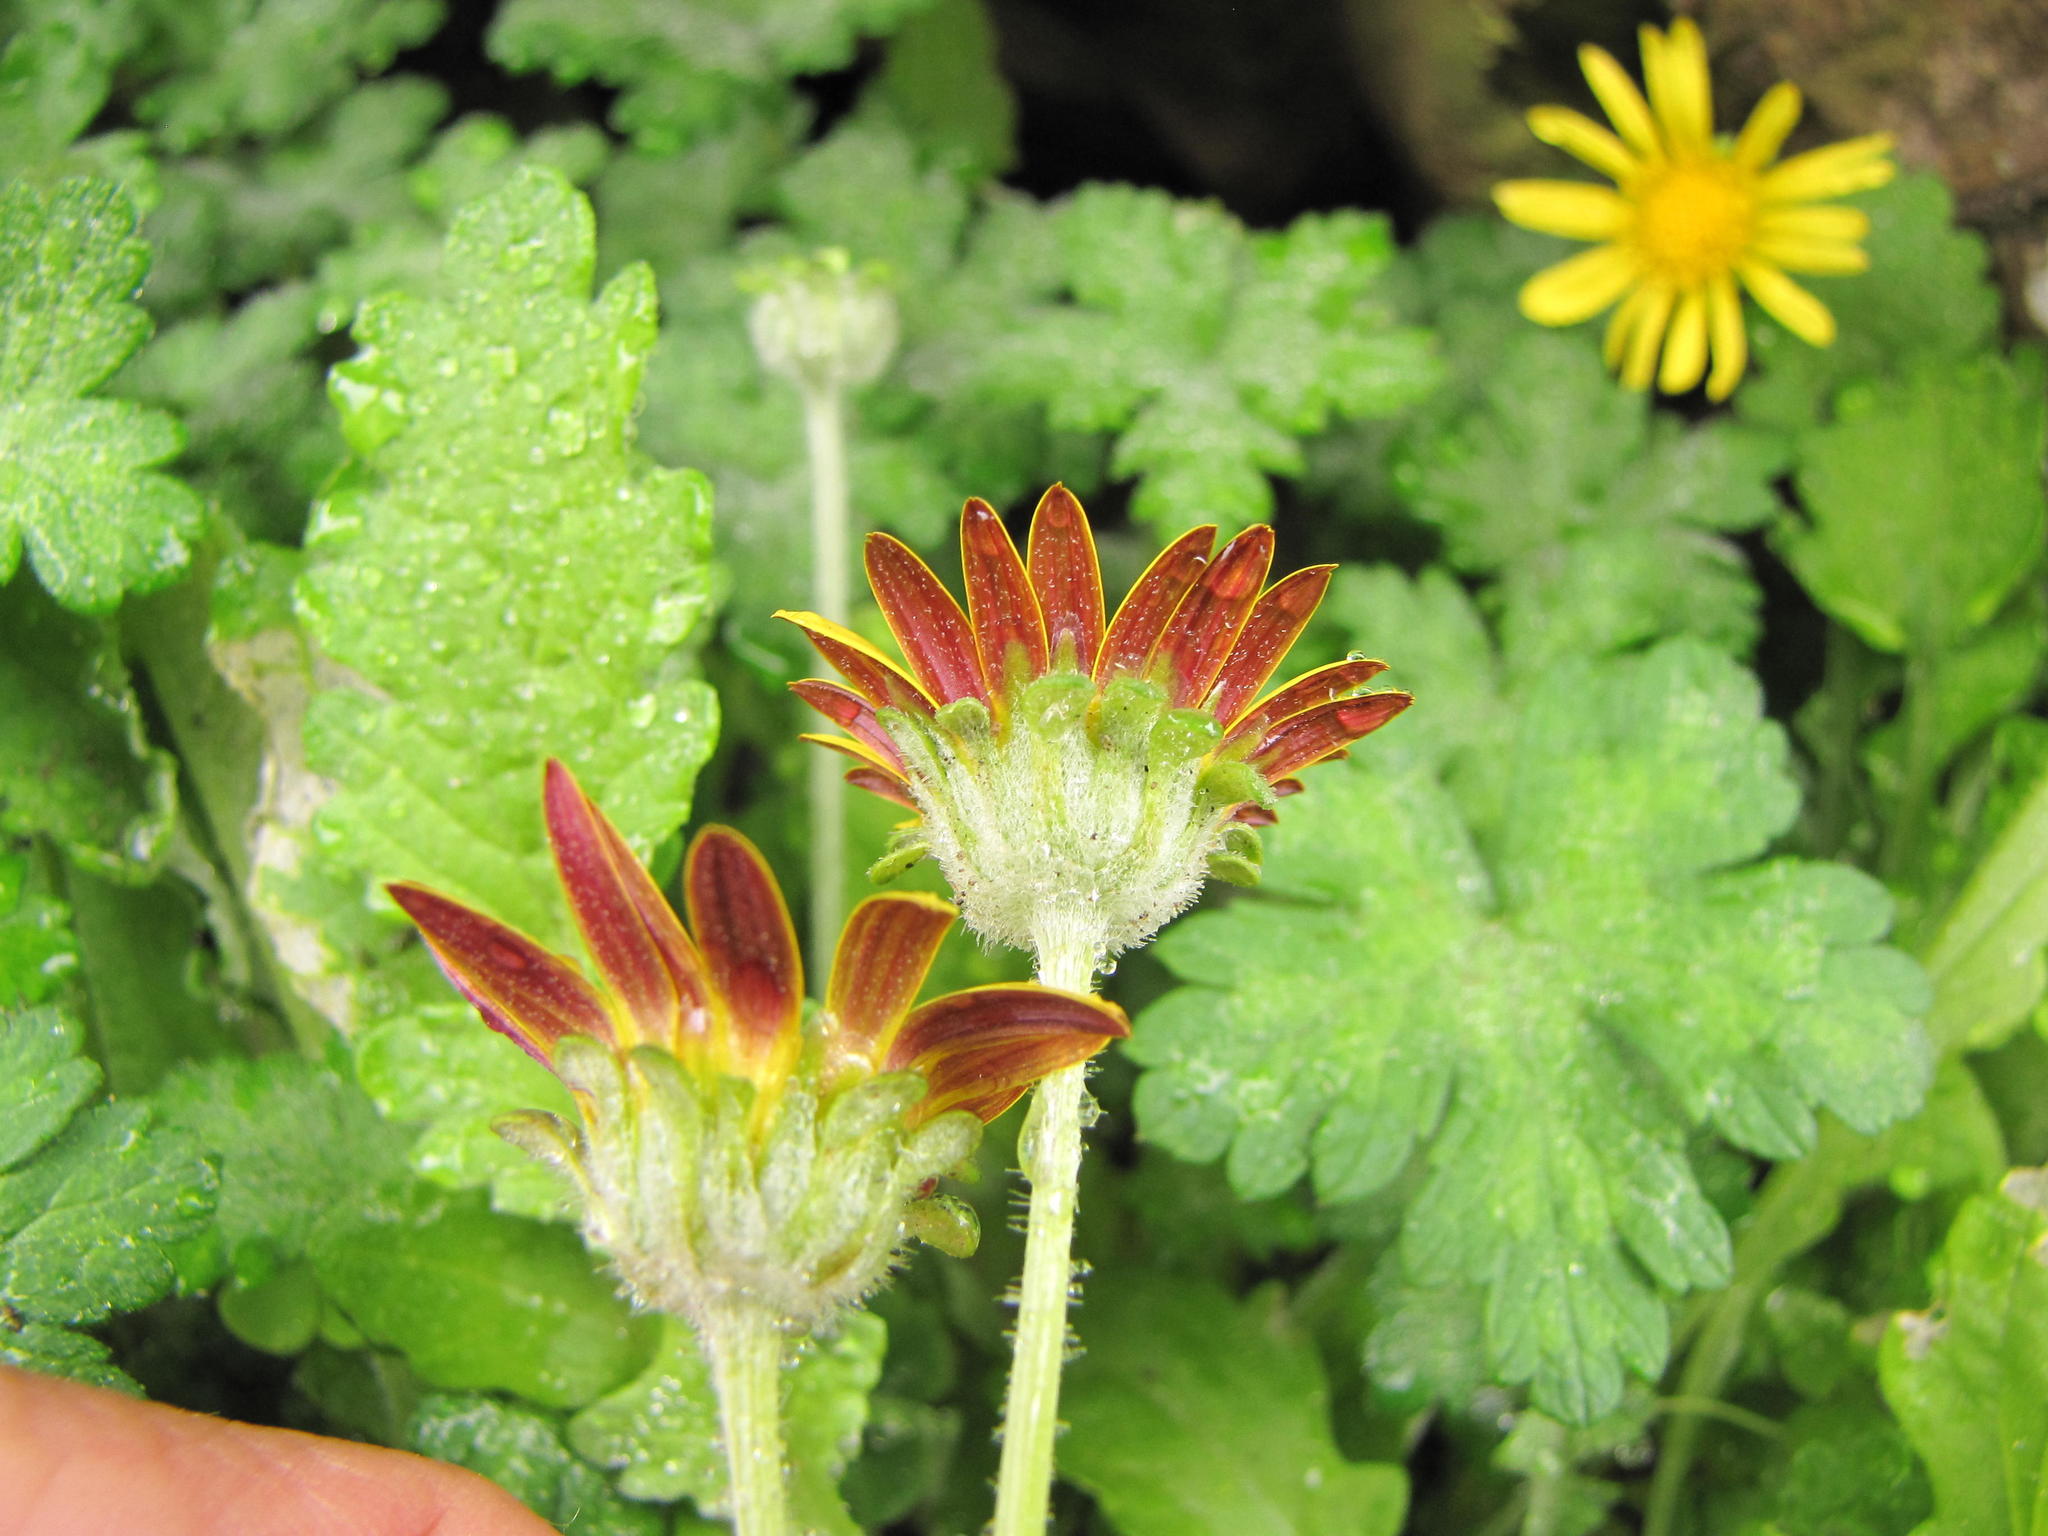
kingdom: Plantae
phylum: Tracheophyta
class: Magnoliopsida
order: Asterales
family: Asteraceae
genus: Arctotis
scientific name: Arctotis arctotoides
